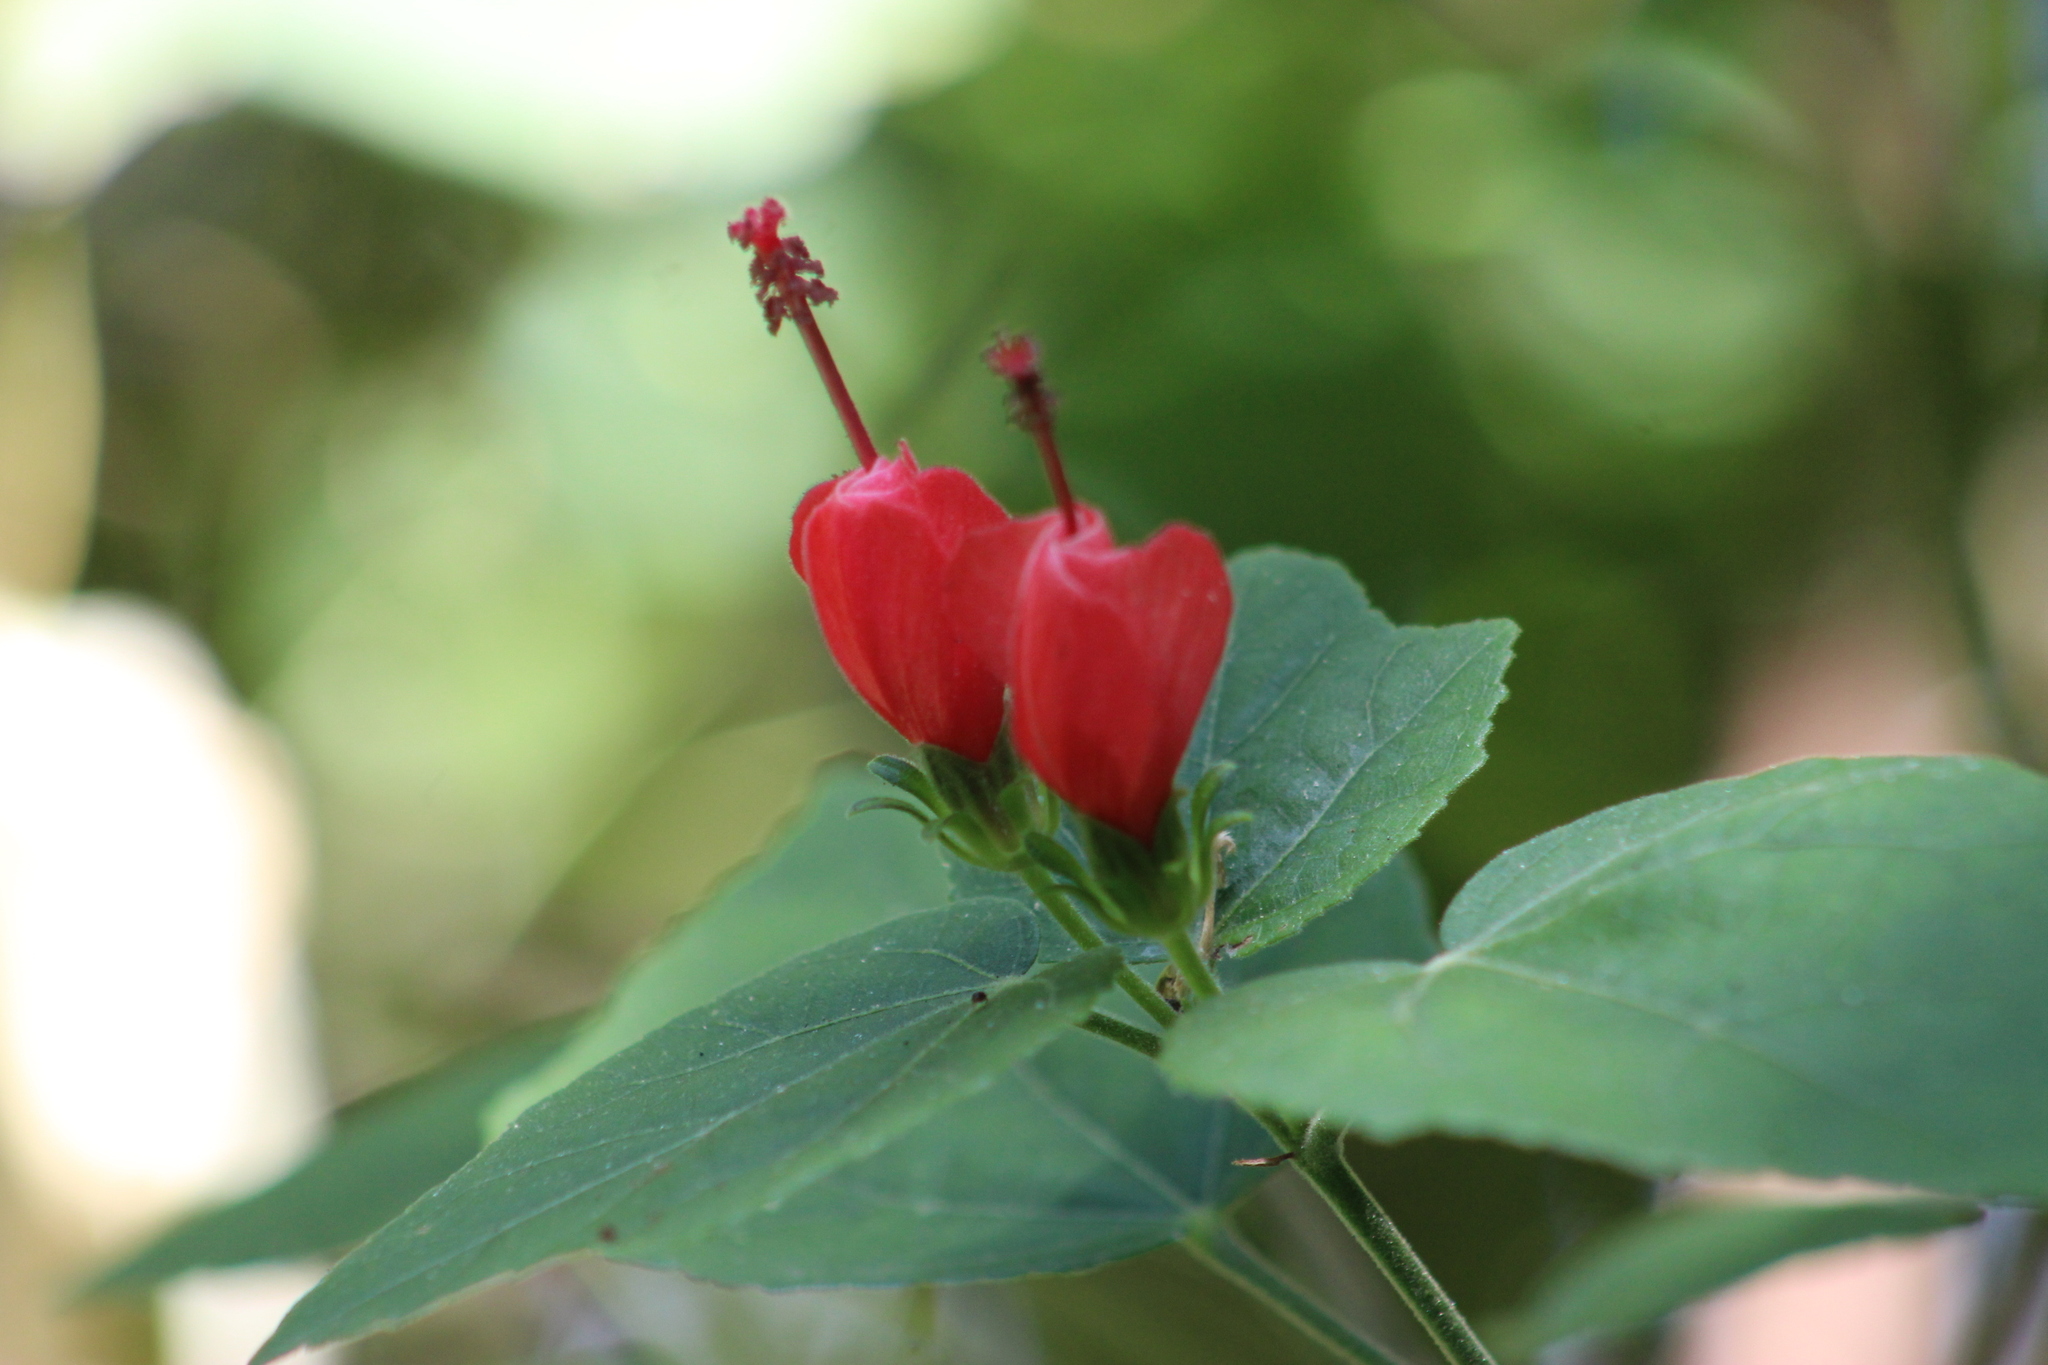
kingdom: Plantae
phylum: Tracheophyta
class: Magnoliopsida
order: Malvales
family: Malvaceae
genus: Malvaviscus
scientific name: Malvaviscus arboreus
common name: Wax mallow
